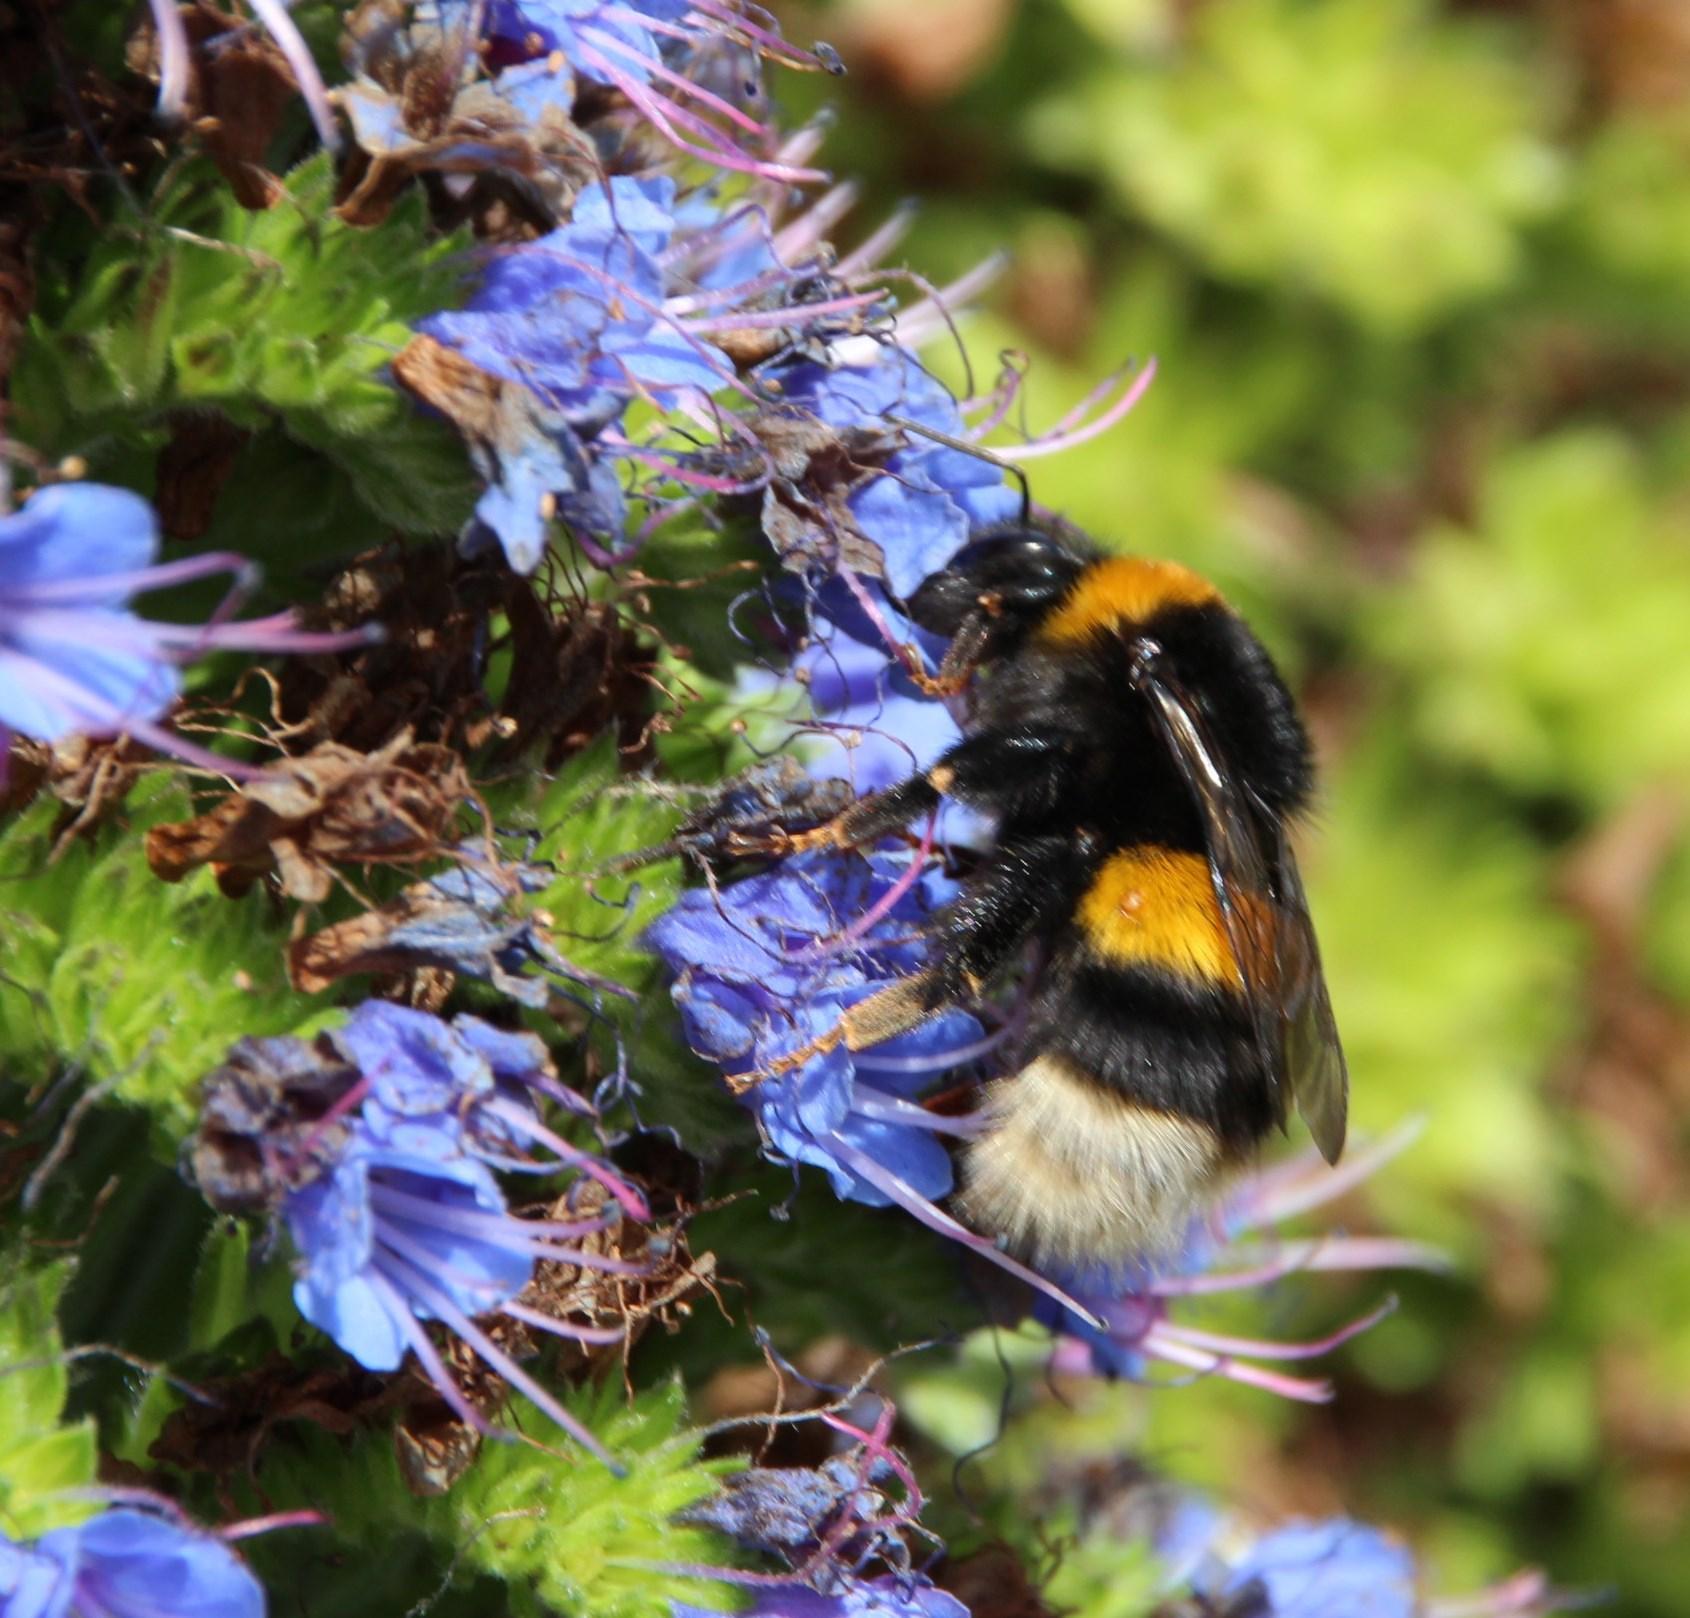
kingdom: Animalia
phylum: Arthropoda
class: Insecta
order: Hymenoptera
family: Apidae
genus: Bombus
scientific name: Bombus terrestris
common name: Buff-tailed bumblebee
